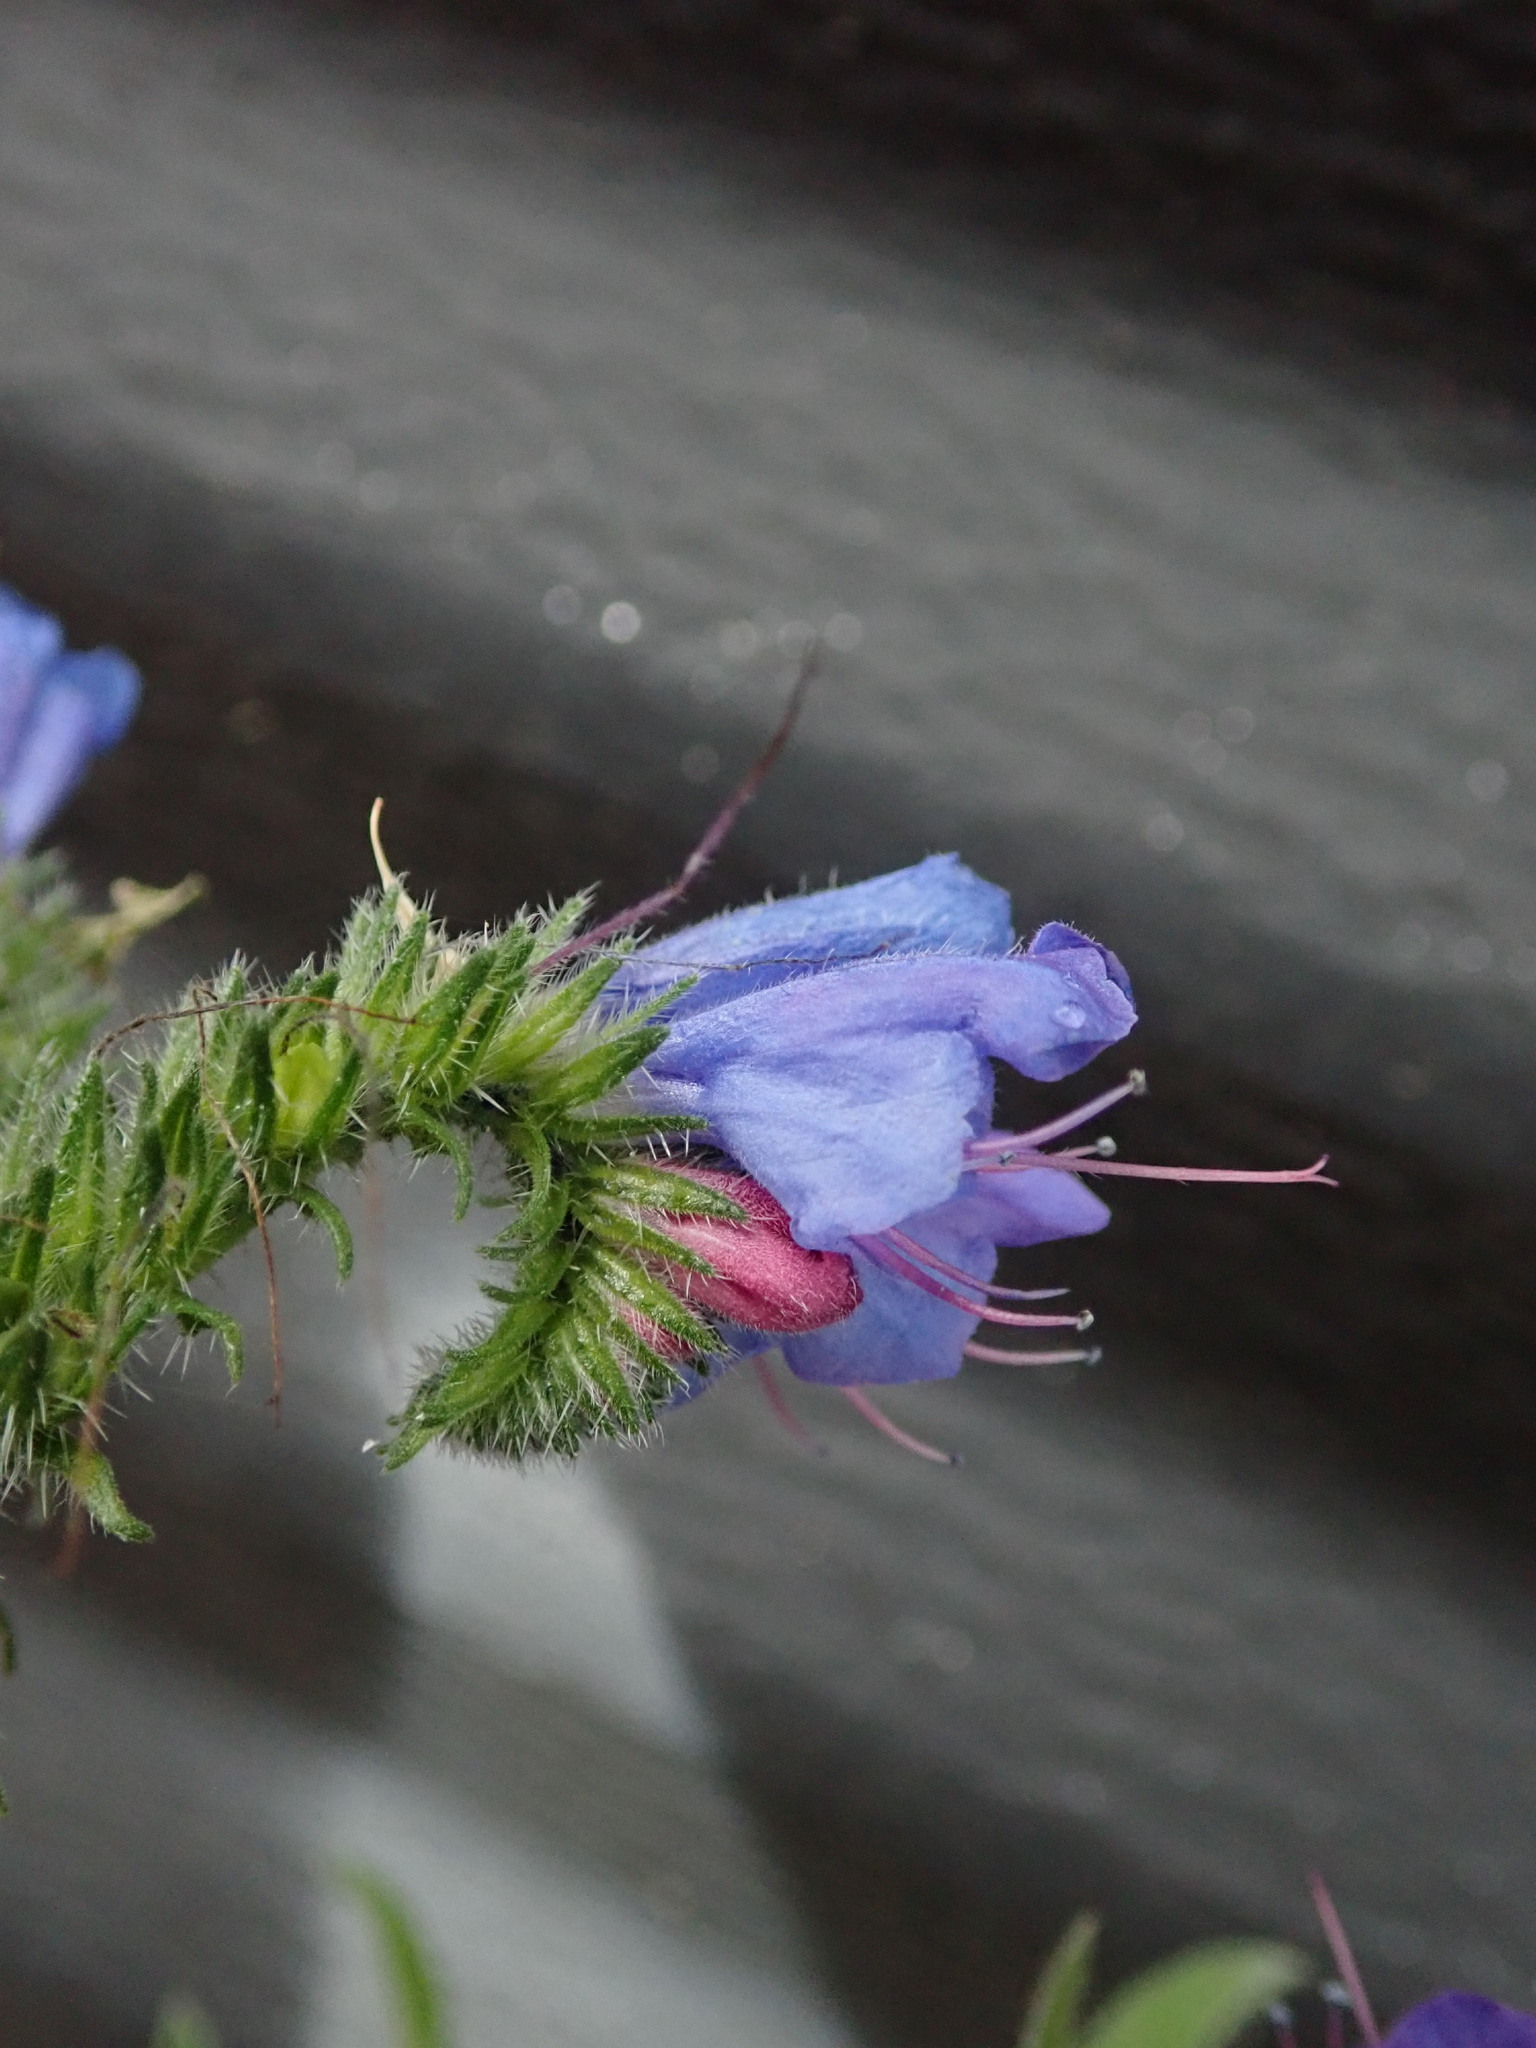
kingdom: Plantae
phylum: Tracheophyta
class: Magnoliopsida
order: Boraginales
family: Boraginaceae
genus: Echium
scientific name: Echium vulgare
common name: Common viper's bugloss
